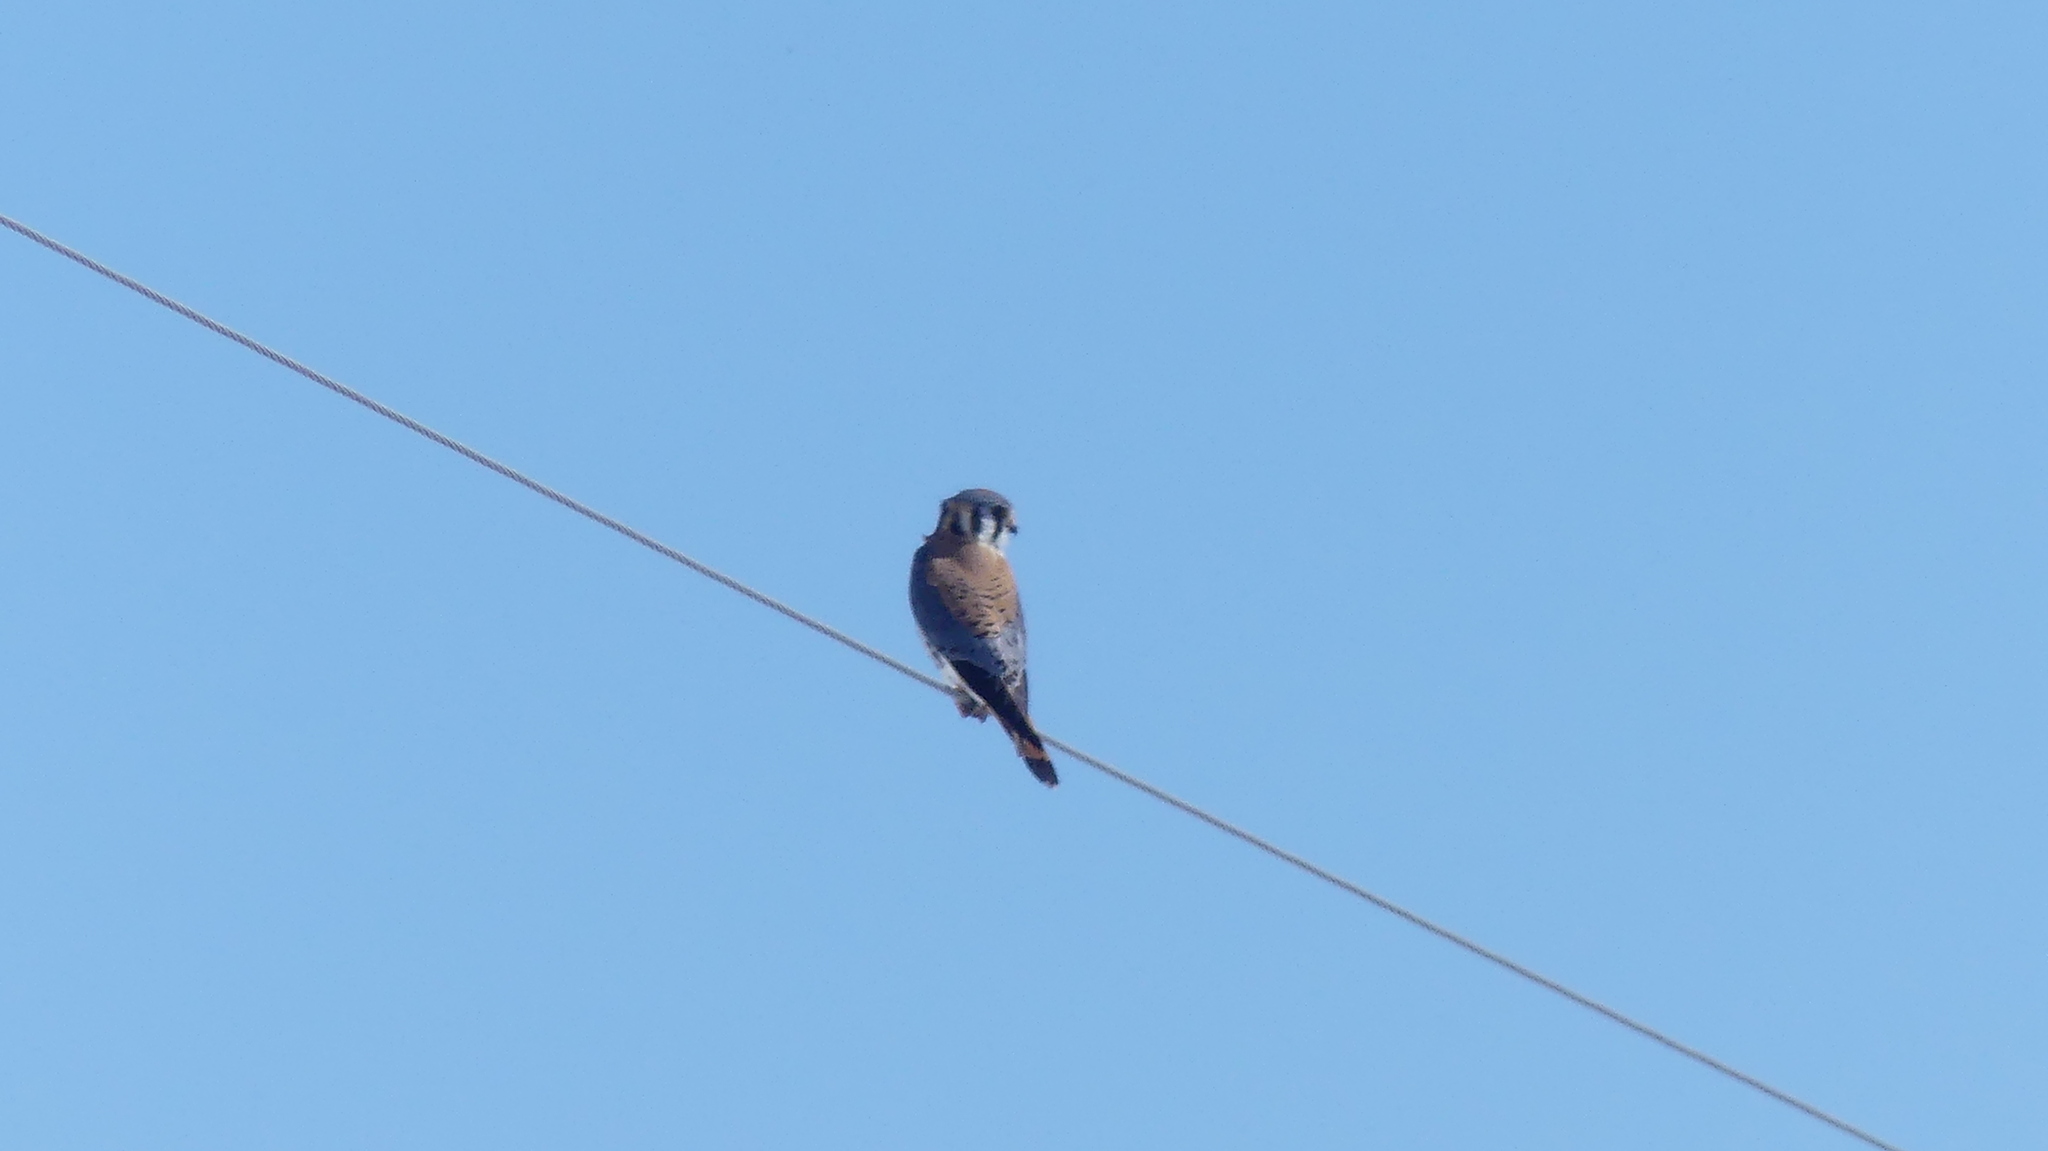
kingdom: Animalia
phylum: Chordata
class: Aves
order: Falconiformes
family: Falconidae
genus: Falco
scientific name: Falco sparverius
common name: American kestrel
